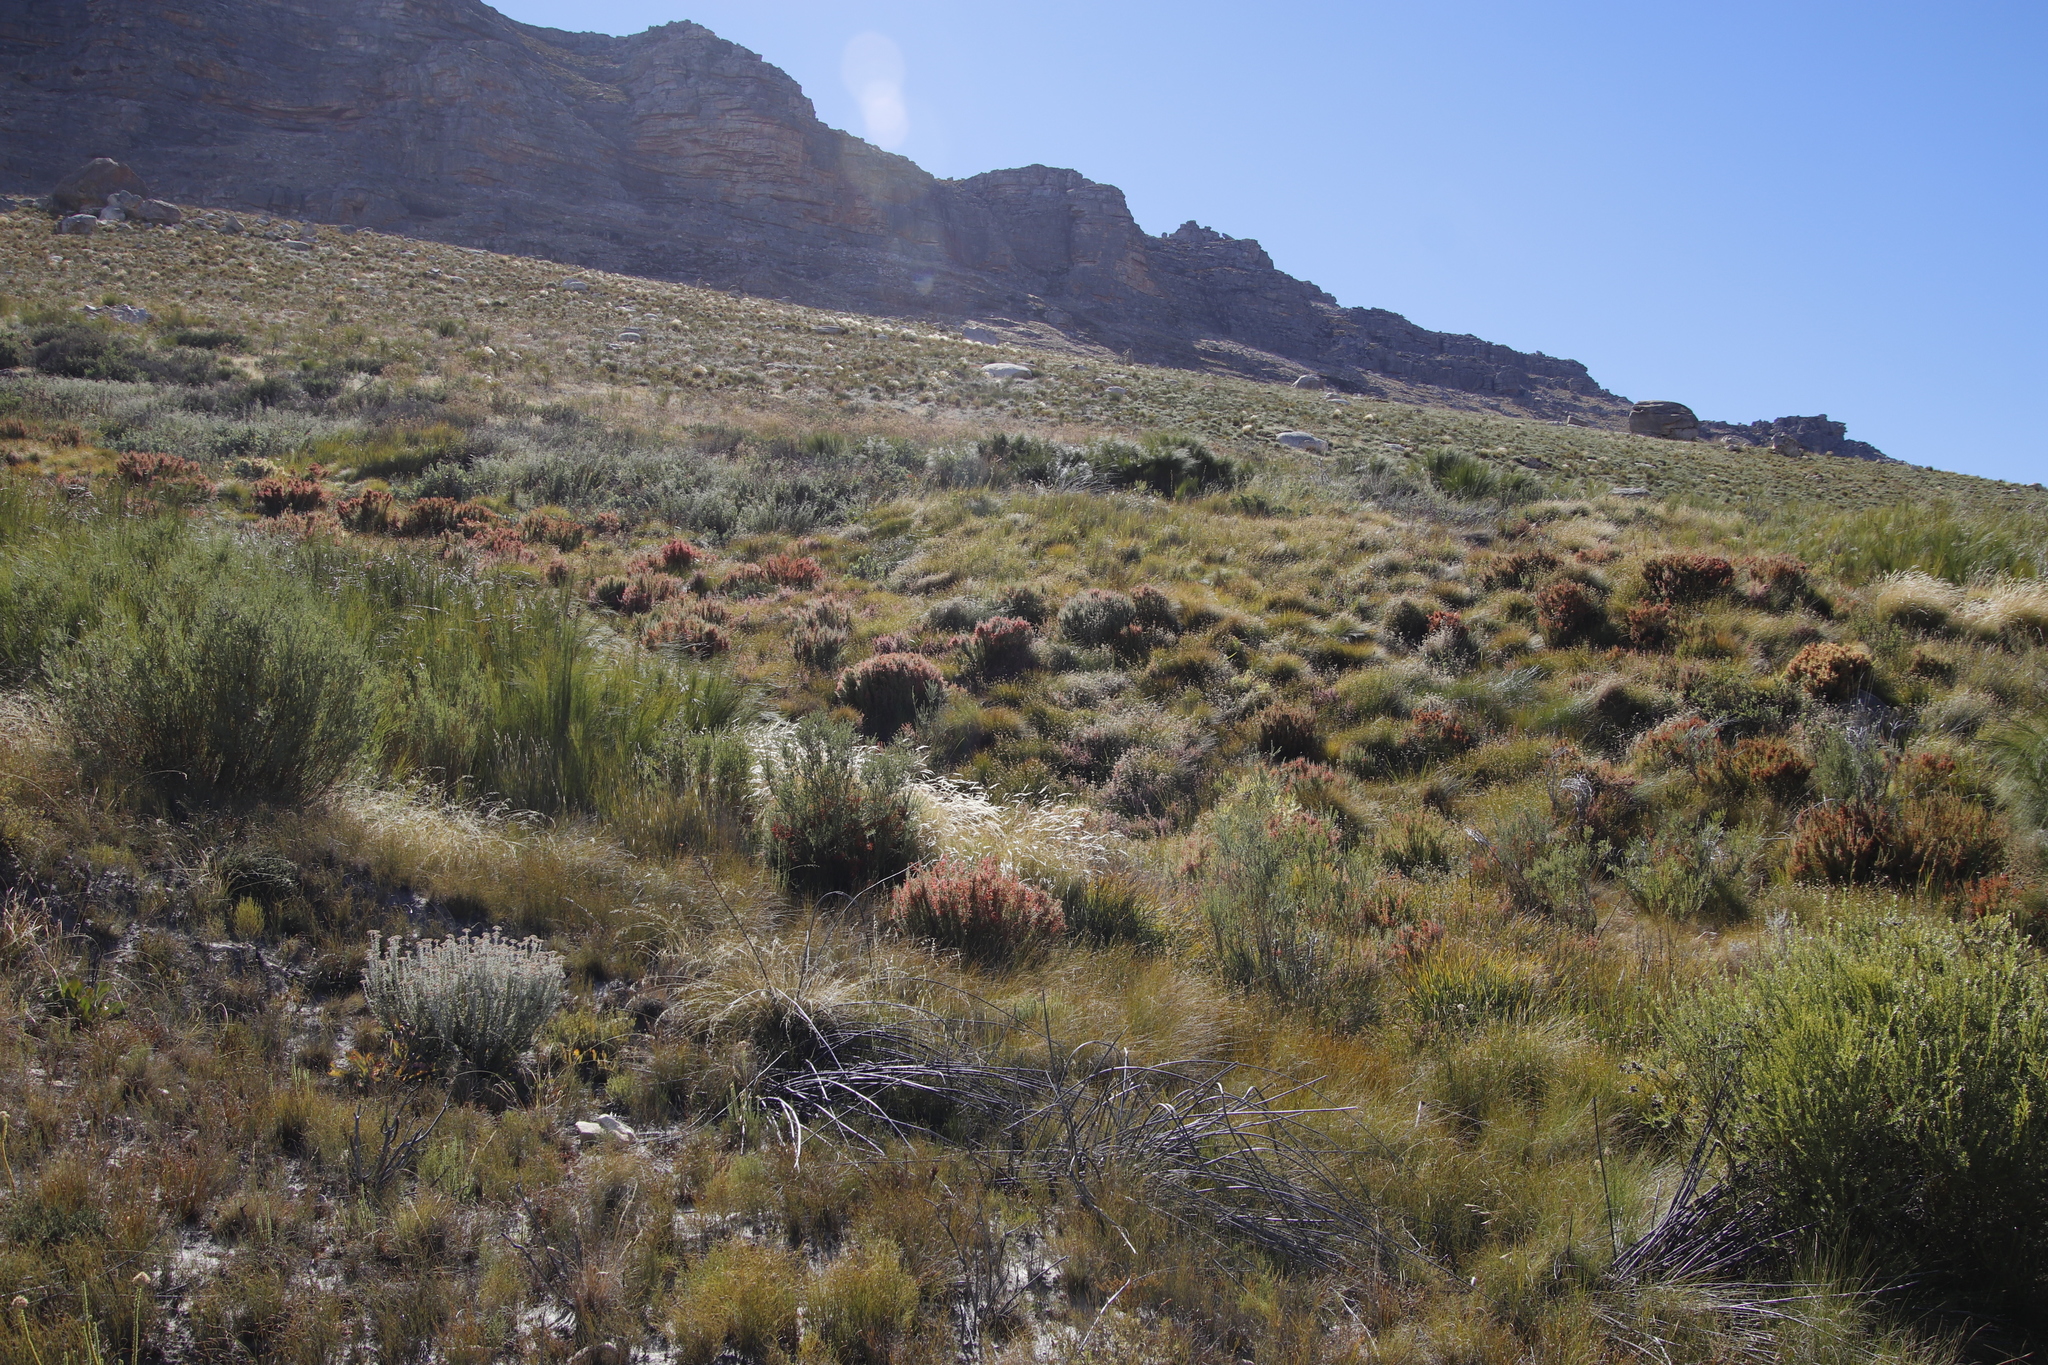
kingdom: Plantae
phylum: Tracheophyta
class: Magnoliopsida
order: Ericales
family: Ericaceae
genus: Erica
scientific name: Erica curviflora
